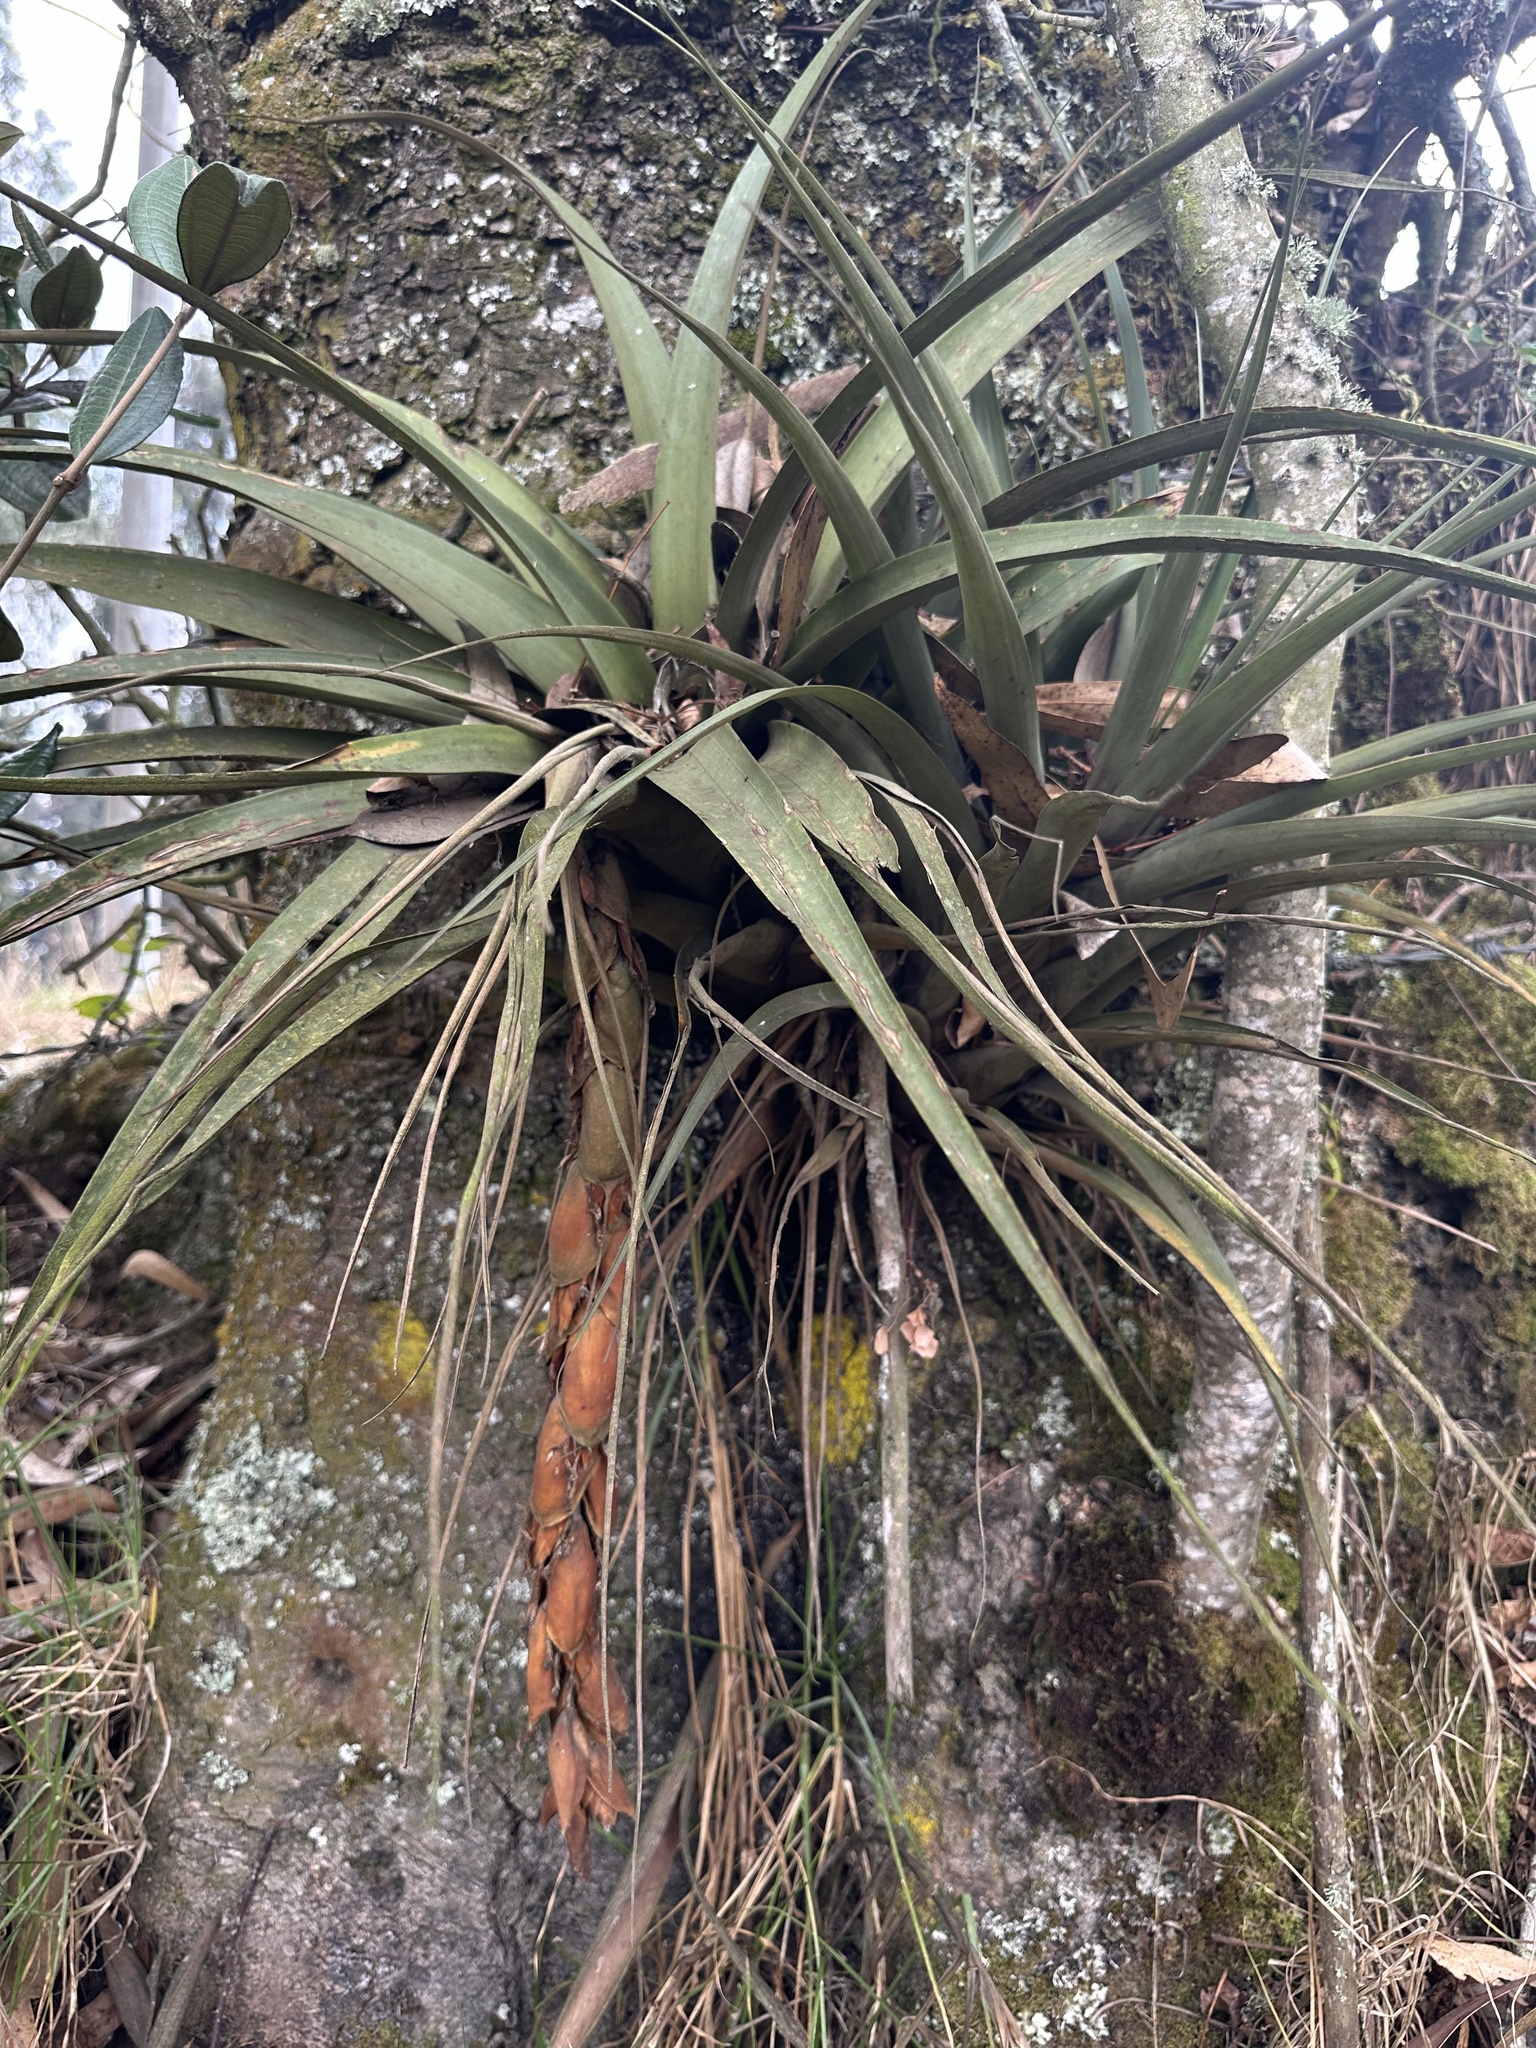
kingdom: Plantae
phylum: Tracheophyta
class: Liliopsida
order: Poales
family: Bromeliaceae
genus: Vriesea
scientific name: Vriesea tequendamae
